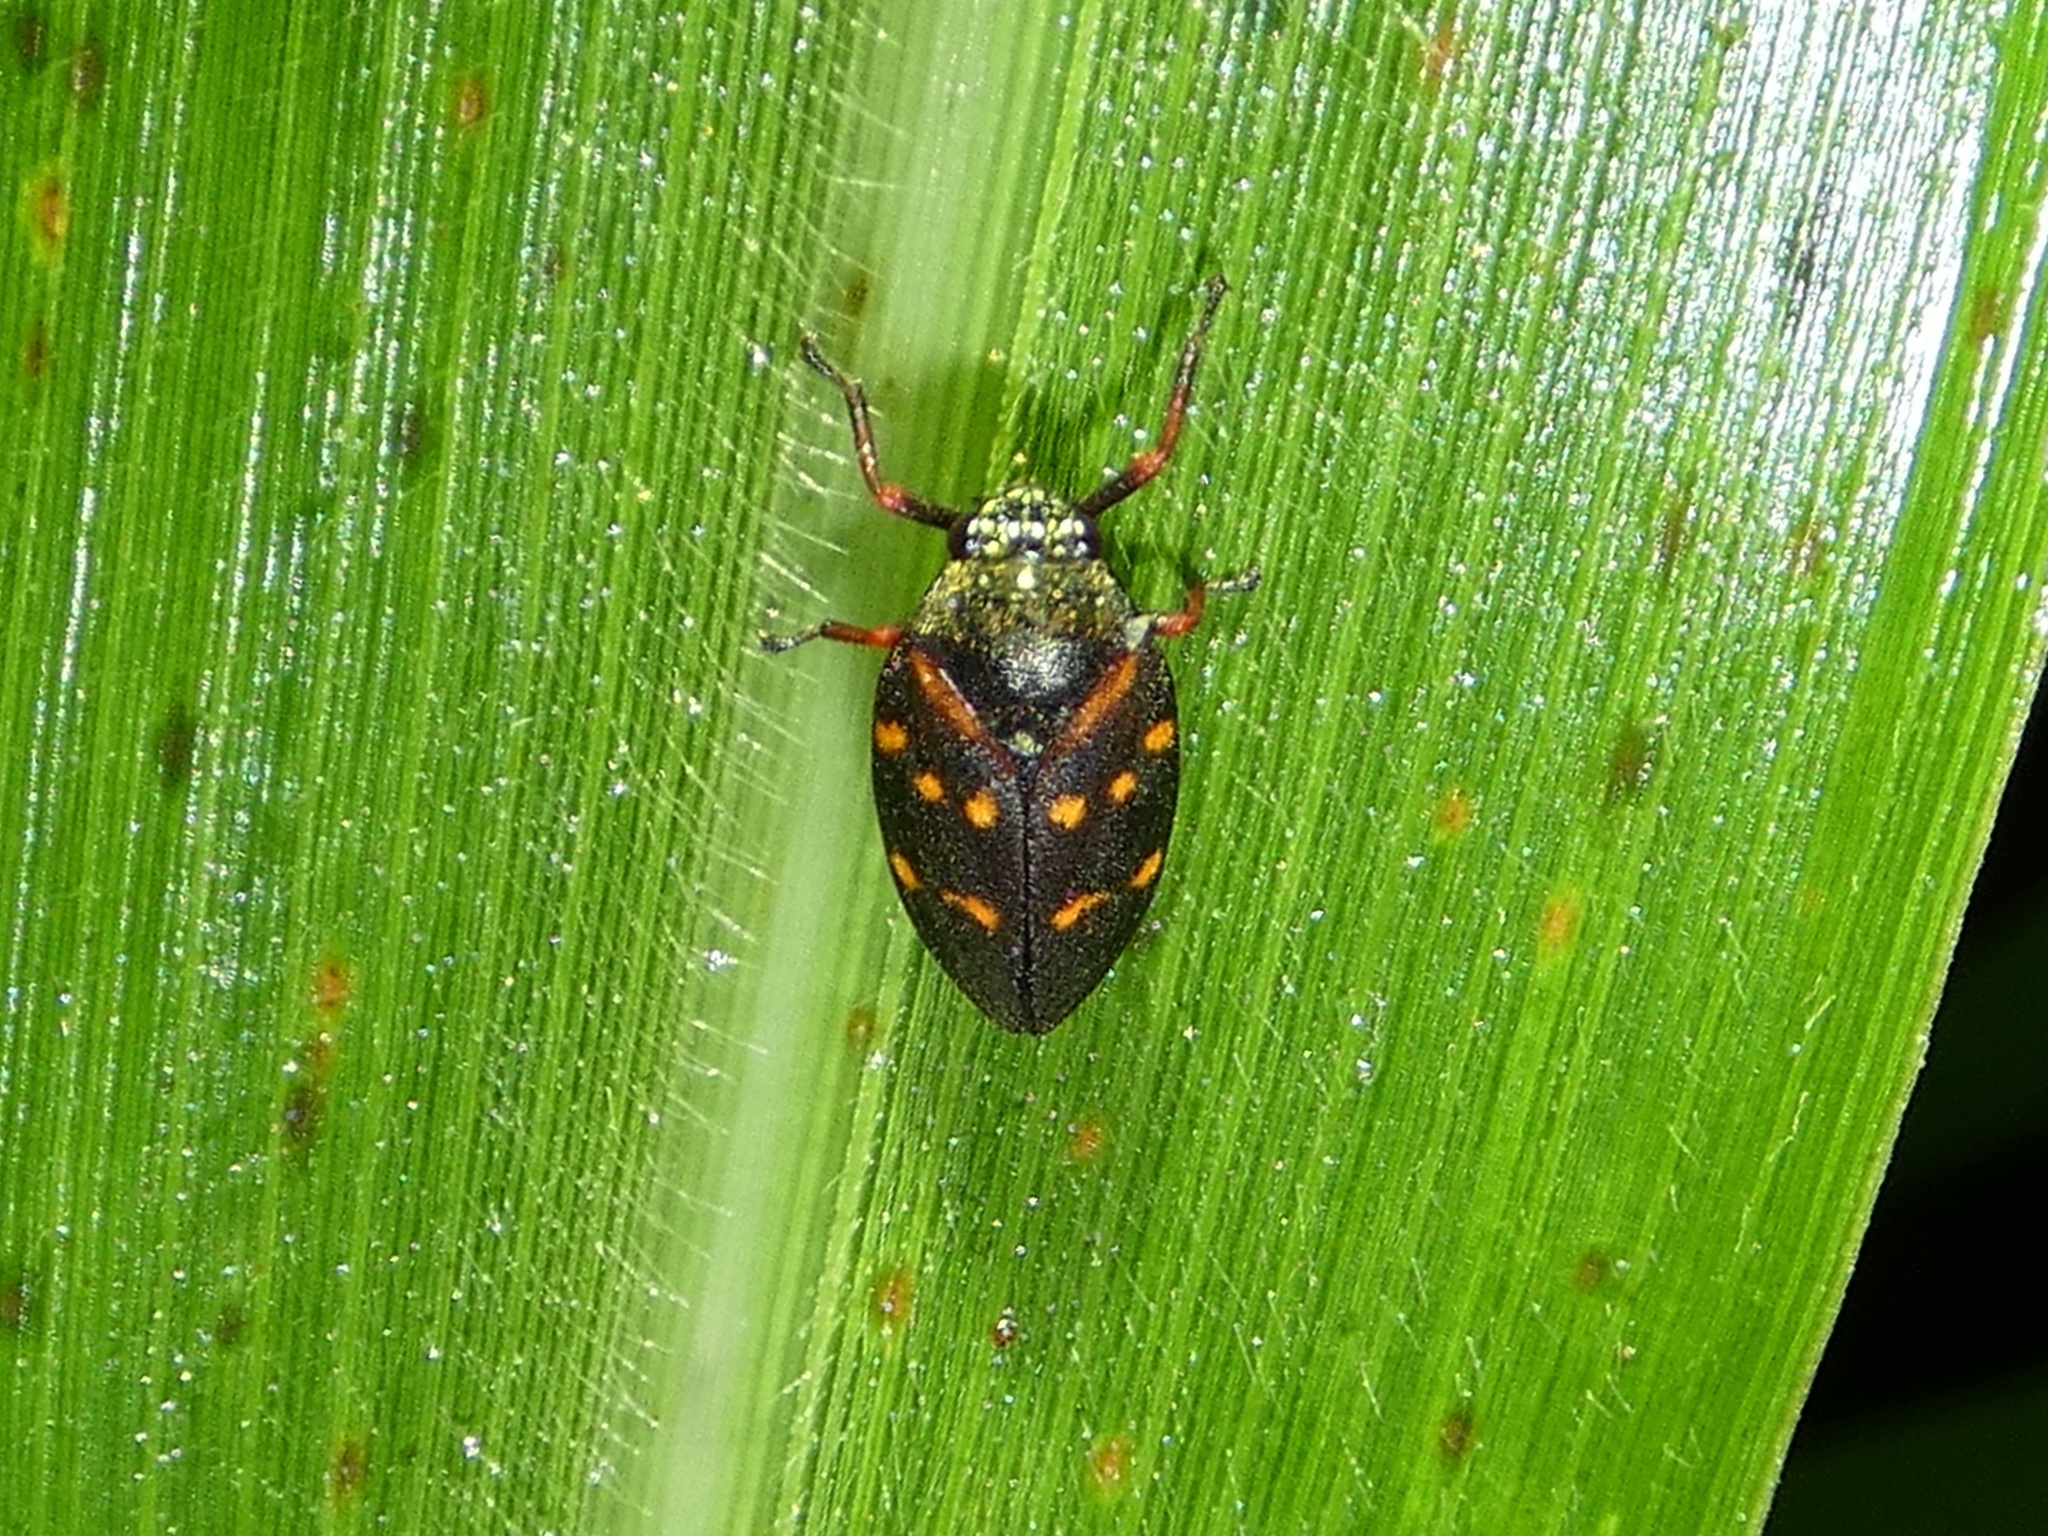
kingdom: Animalia
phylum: Arthropoda
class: Insecta
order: Hemiptera
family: Cercopidae
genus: Mahanarva
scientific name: Mahanarva costaricensis
